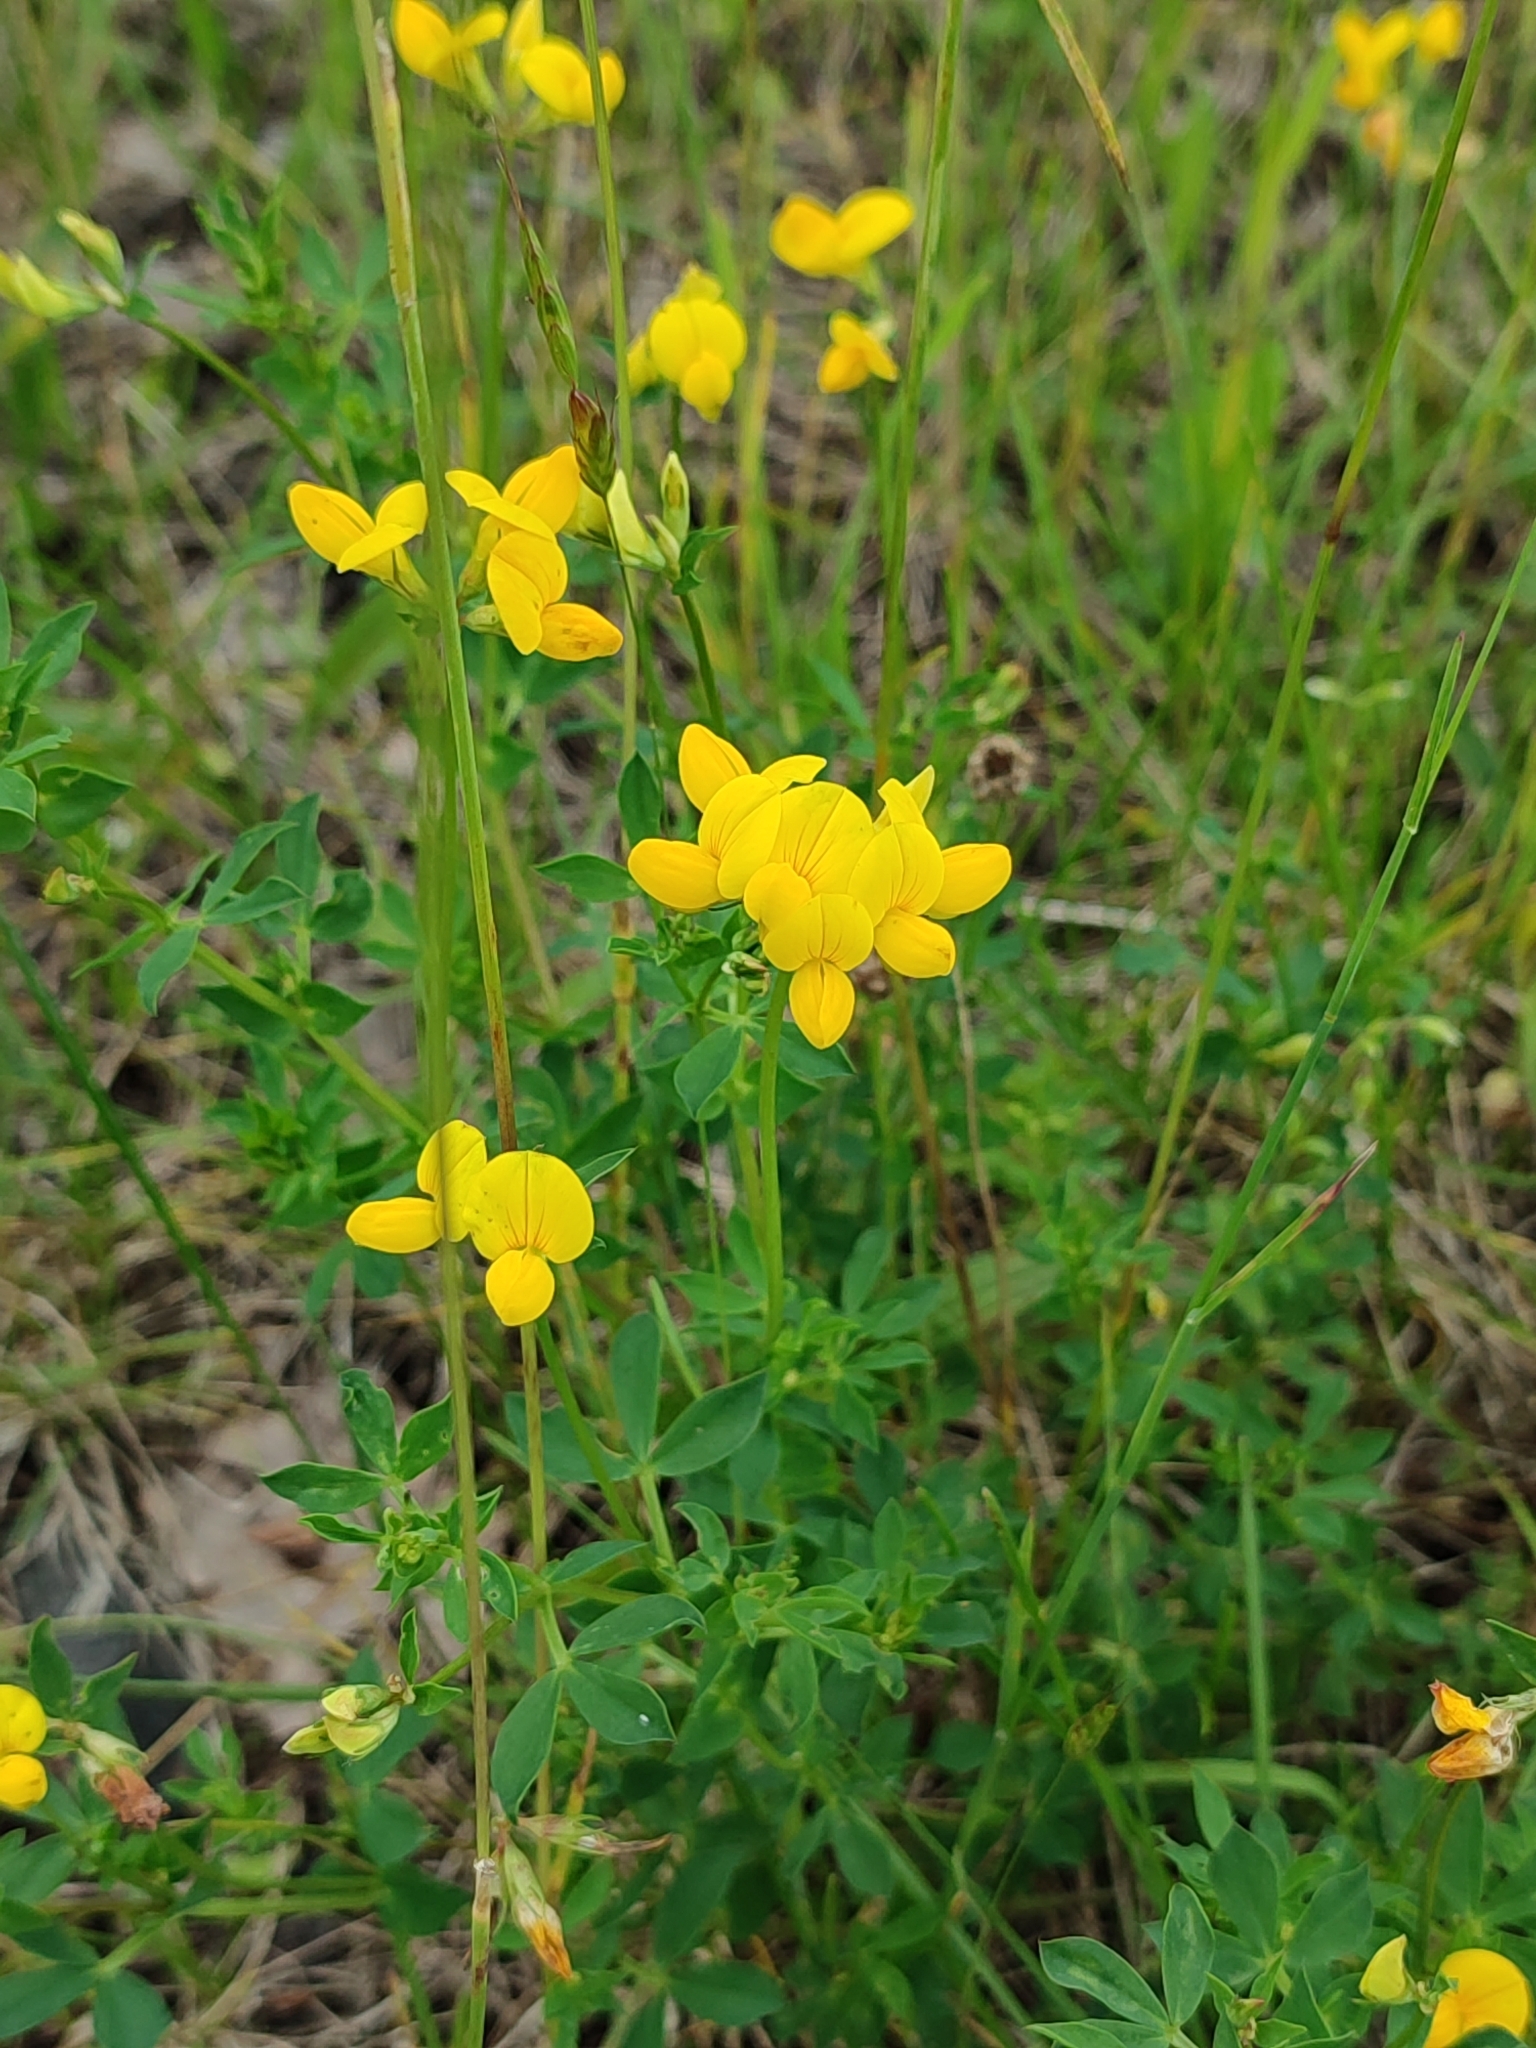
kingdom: Plantae
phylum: Tracheophyta
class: Magnoliopsida
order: Fabales
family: Fabaceae
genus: Lotus
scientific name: Lotus corniculatus
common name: Common bird's-foot-trefoil
